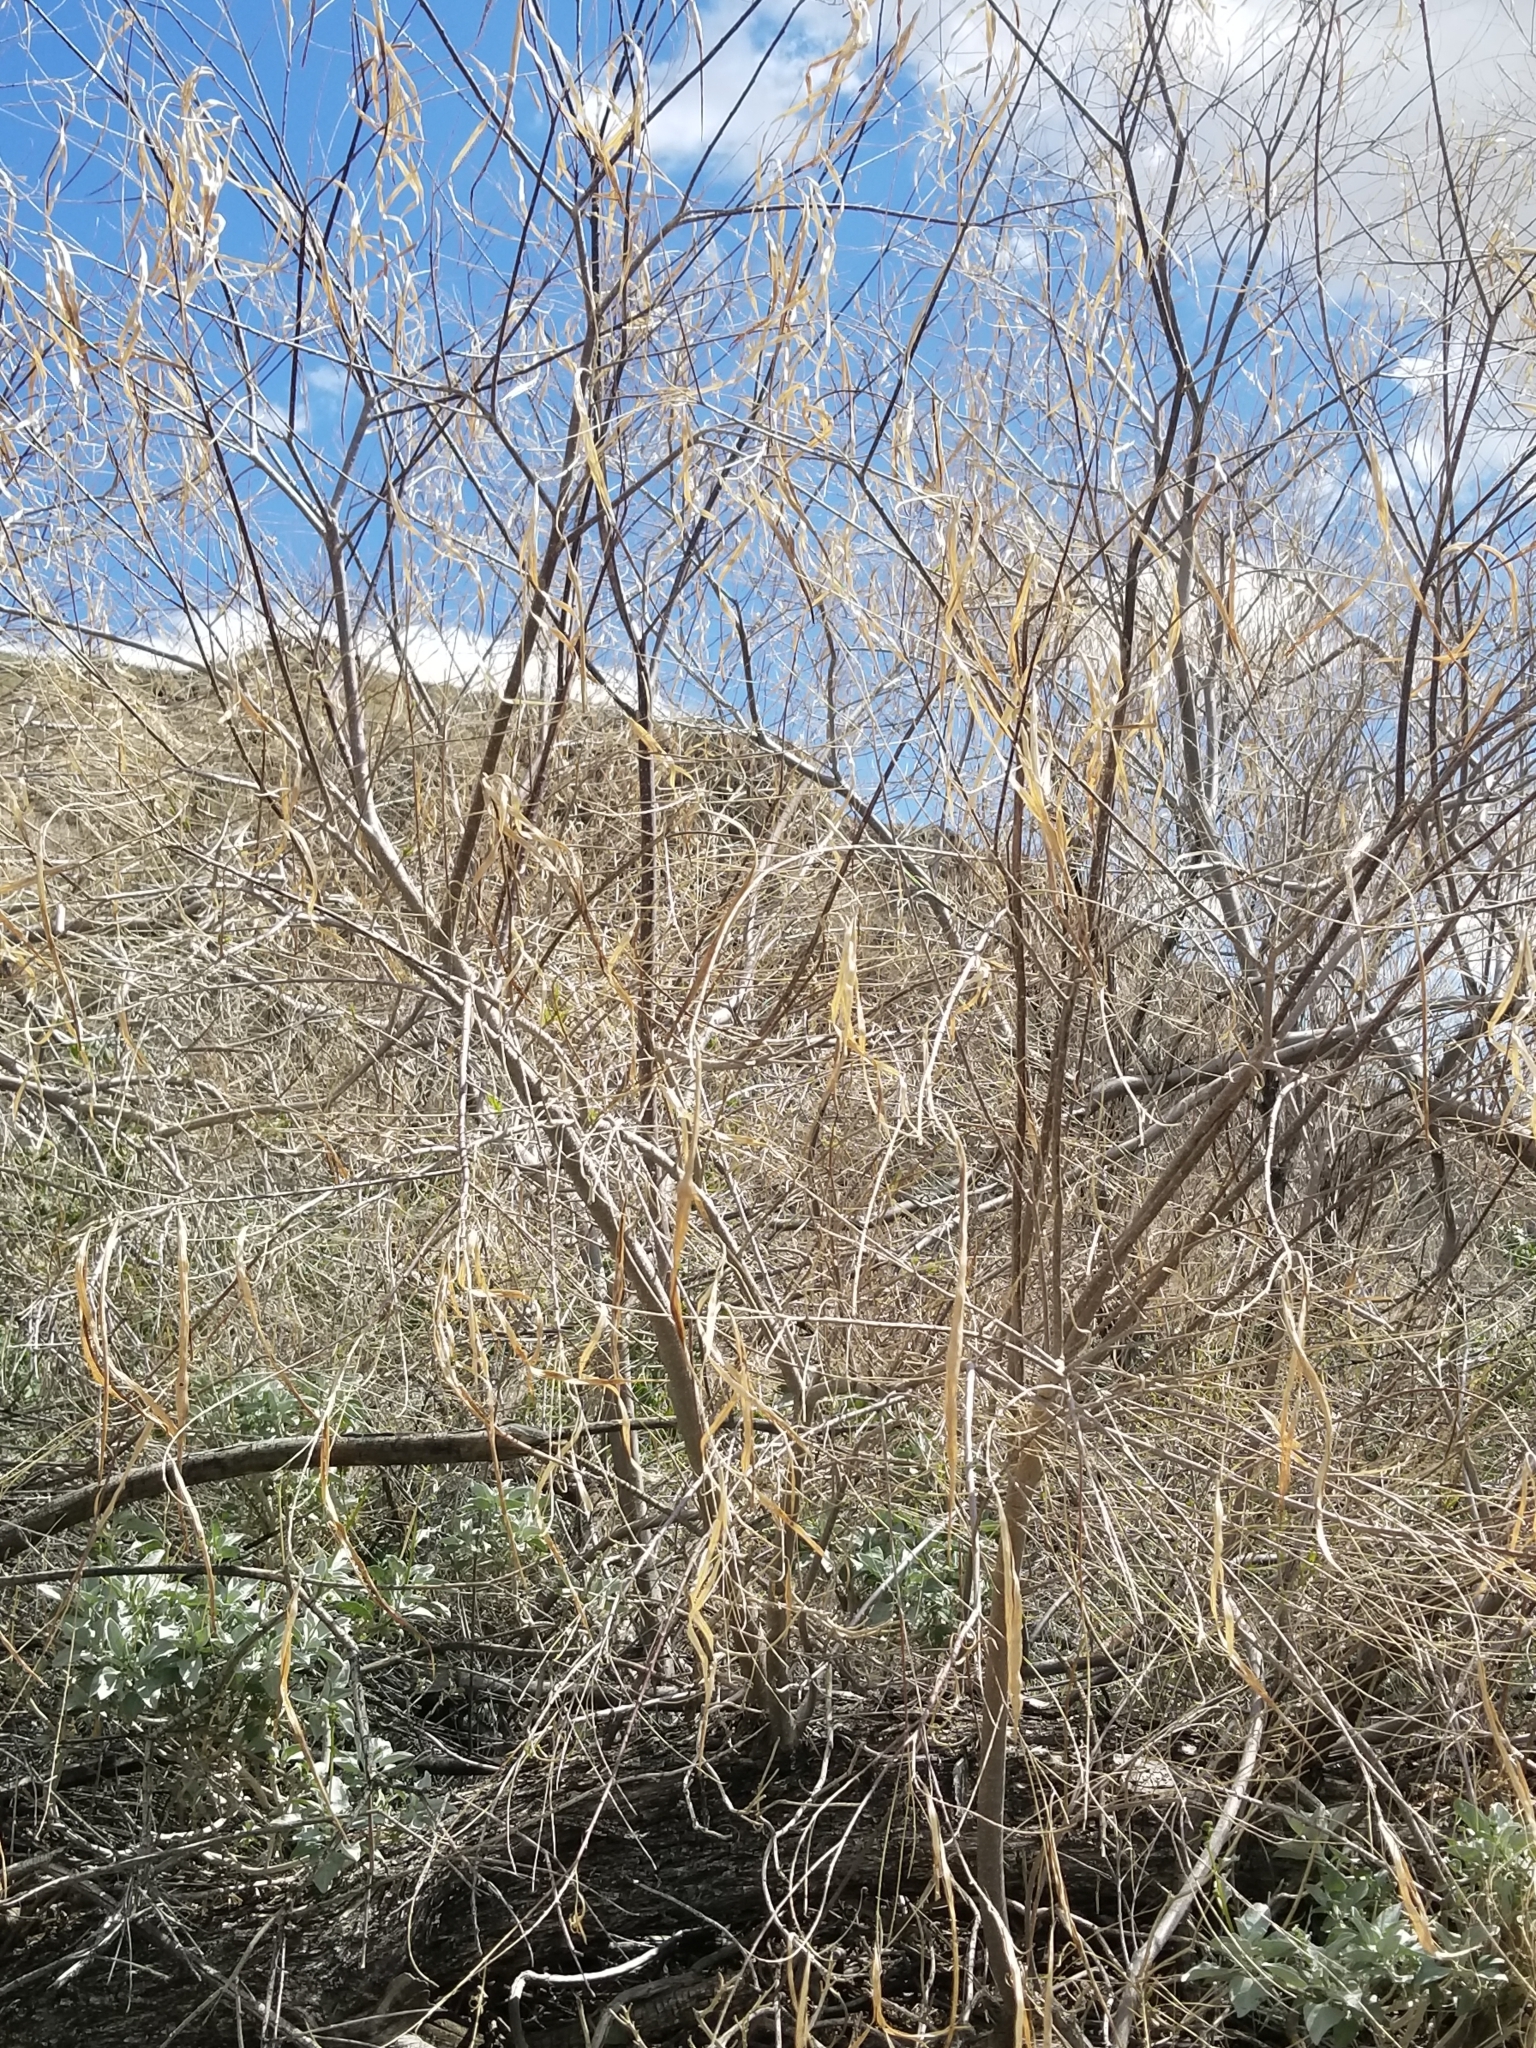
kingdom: Plantae
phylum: Tracheophyta
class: Magnoliopsida
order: Lamiales
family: Bignoniaceae
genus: Chilopsis
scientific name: Chilopsis linearis
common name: Desert-willow
